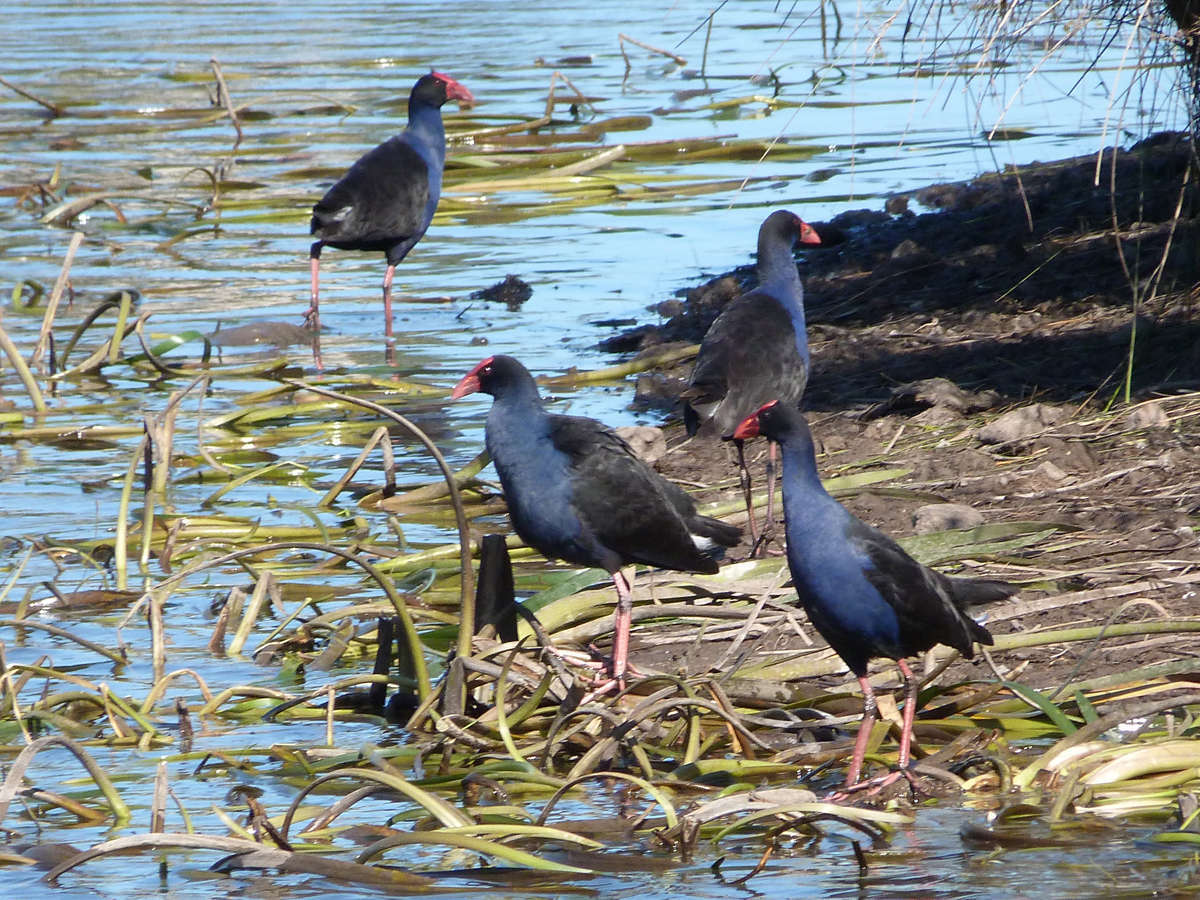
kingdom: Animalia
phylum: Chordata
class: Aves
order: Gruiformes
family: Rallidae
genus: Porphyrio
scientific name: Porphyrio melanotus
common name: Australasian swamphen
